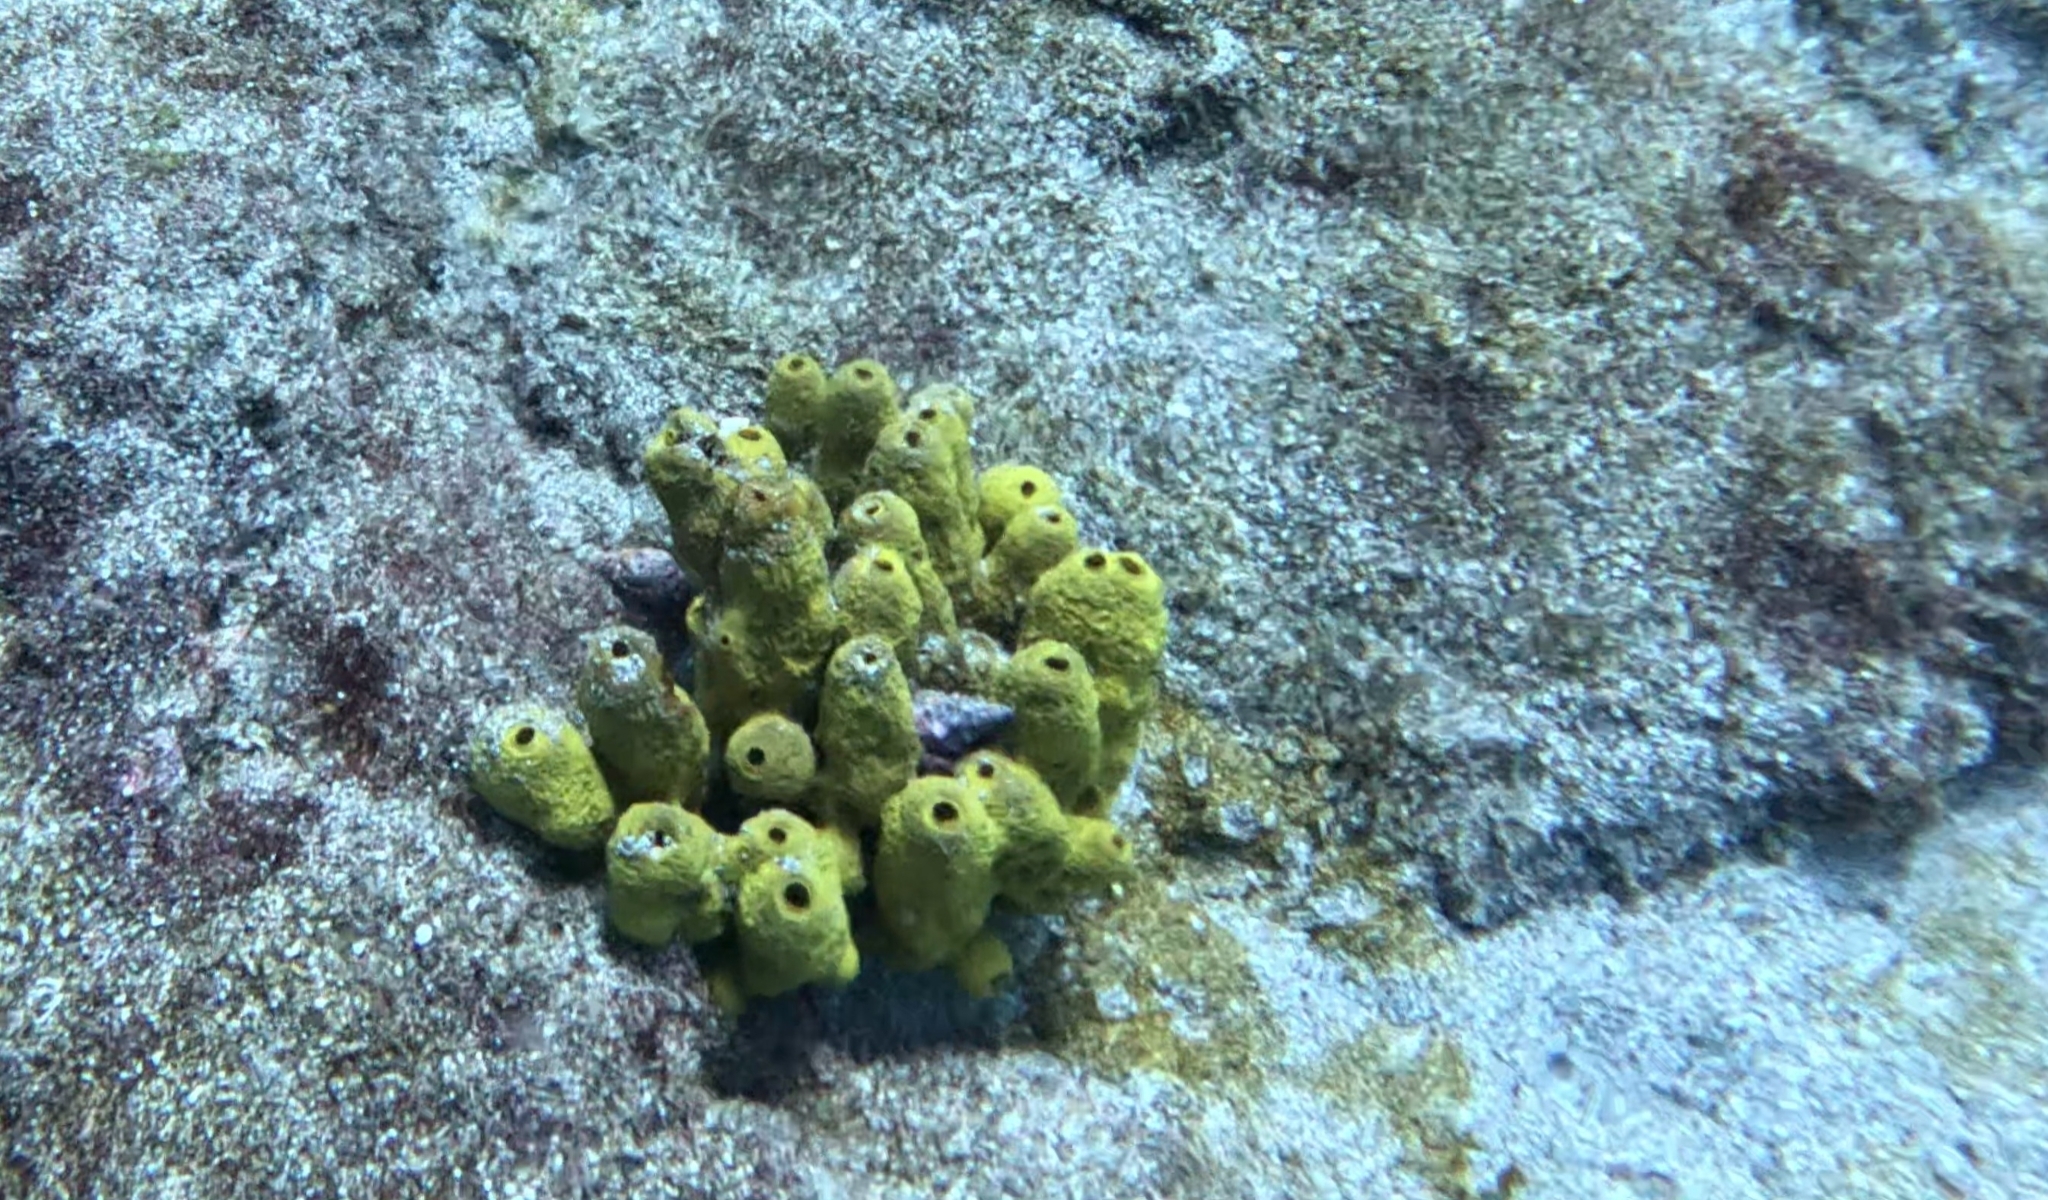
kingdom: Animalia
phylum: Porifera
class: Demospongiae
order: Verongiida
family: Aplysinidae
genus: Aplysina
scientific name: Aplysina aerophoba
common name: Aureate sponge
